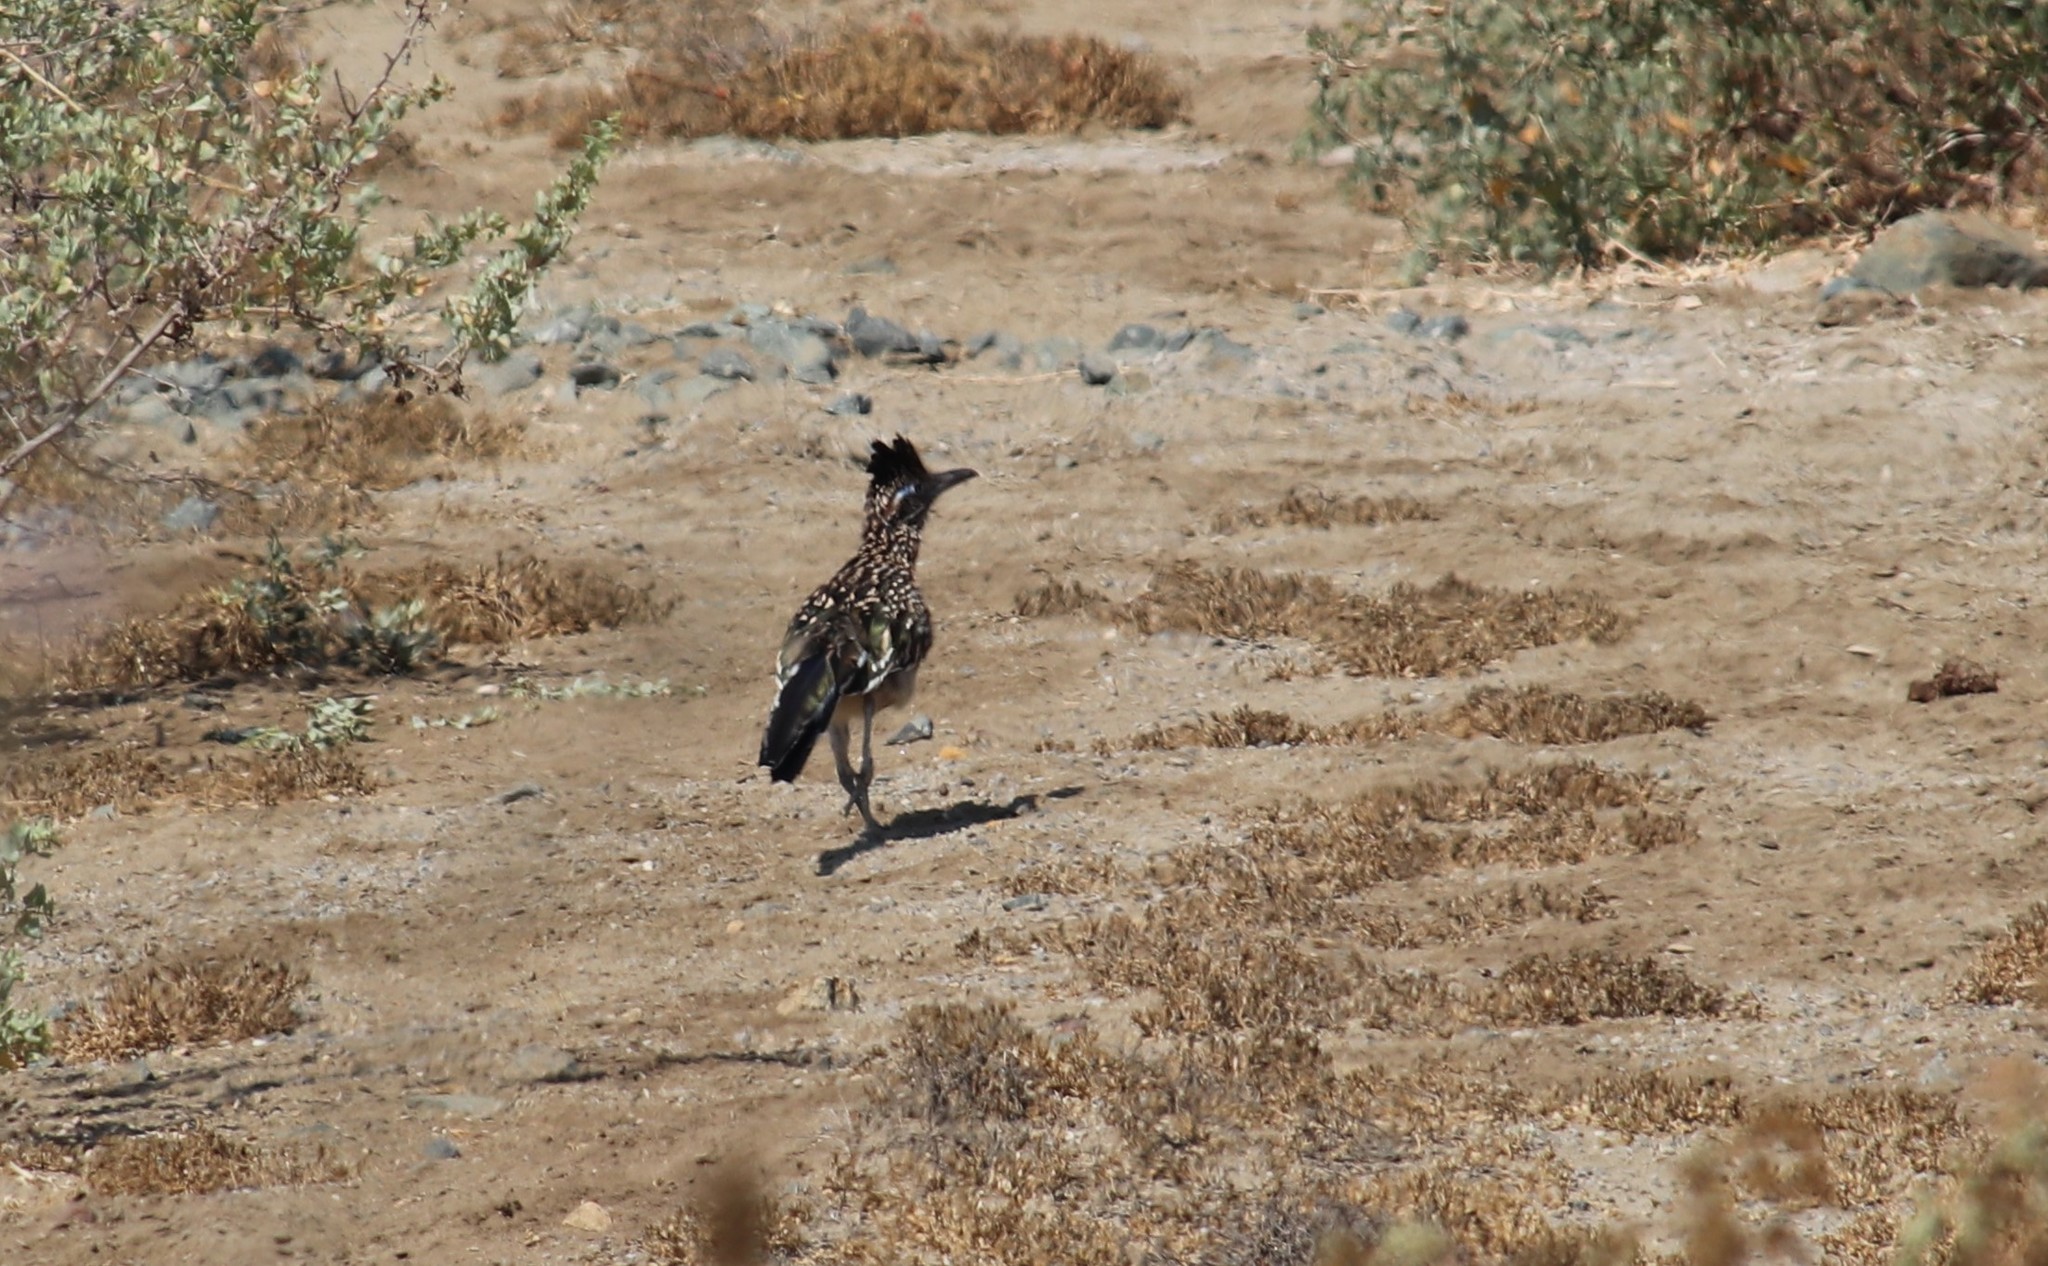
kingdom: Animalia
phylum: Chordata
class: Aves
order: Cuculiformes
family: Cuculidae
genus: Geococcyx
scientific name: Geococcyx californianus
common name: Greater roadrunner
